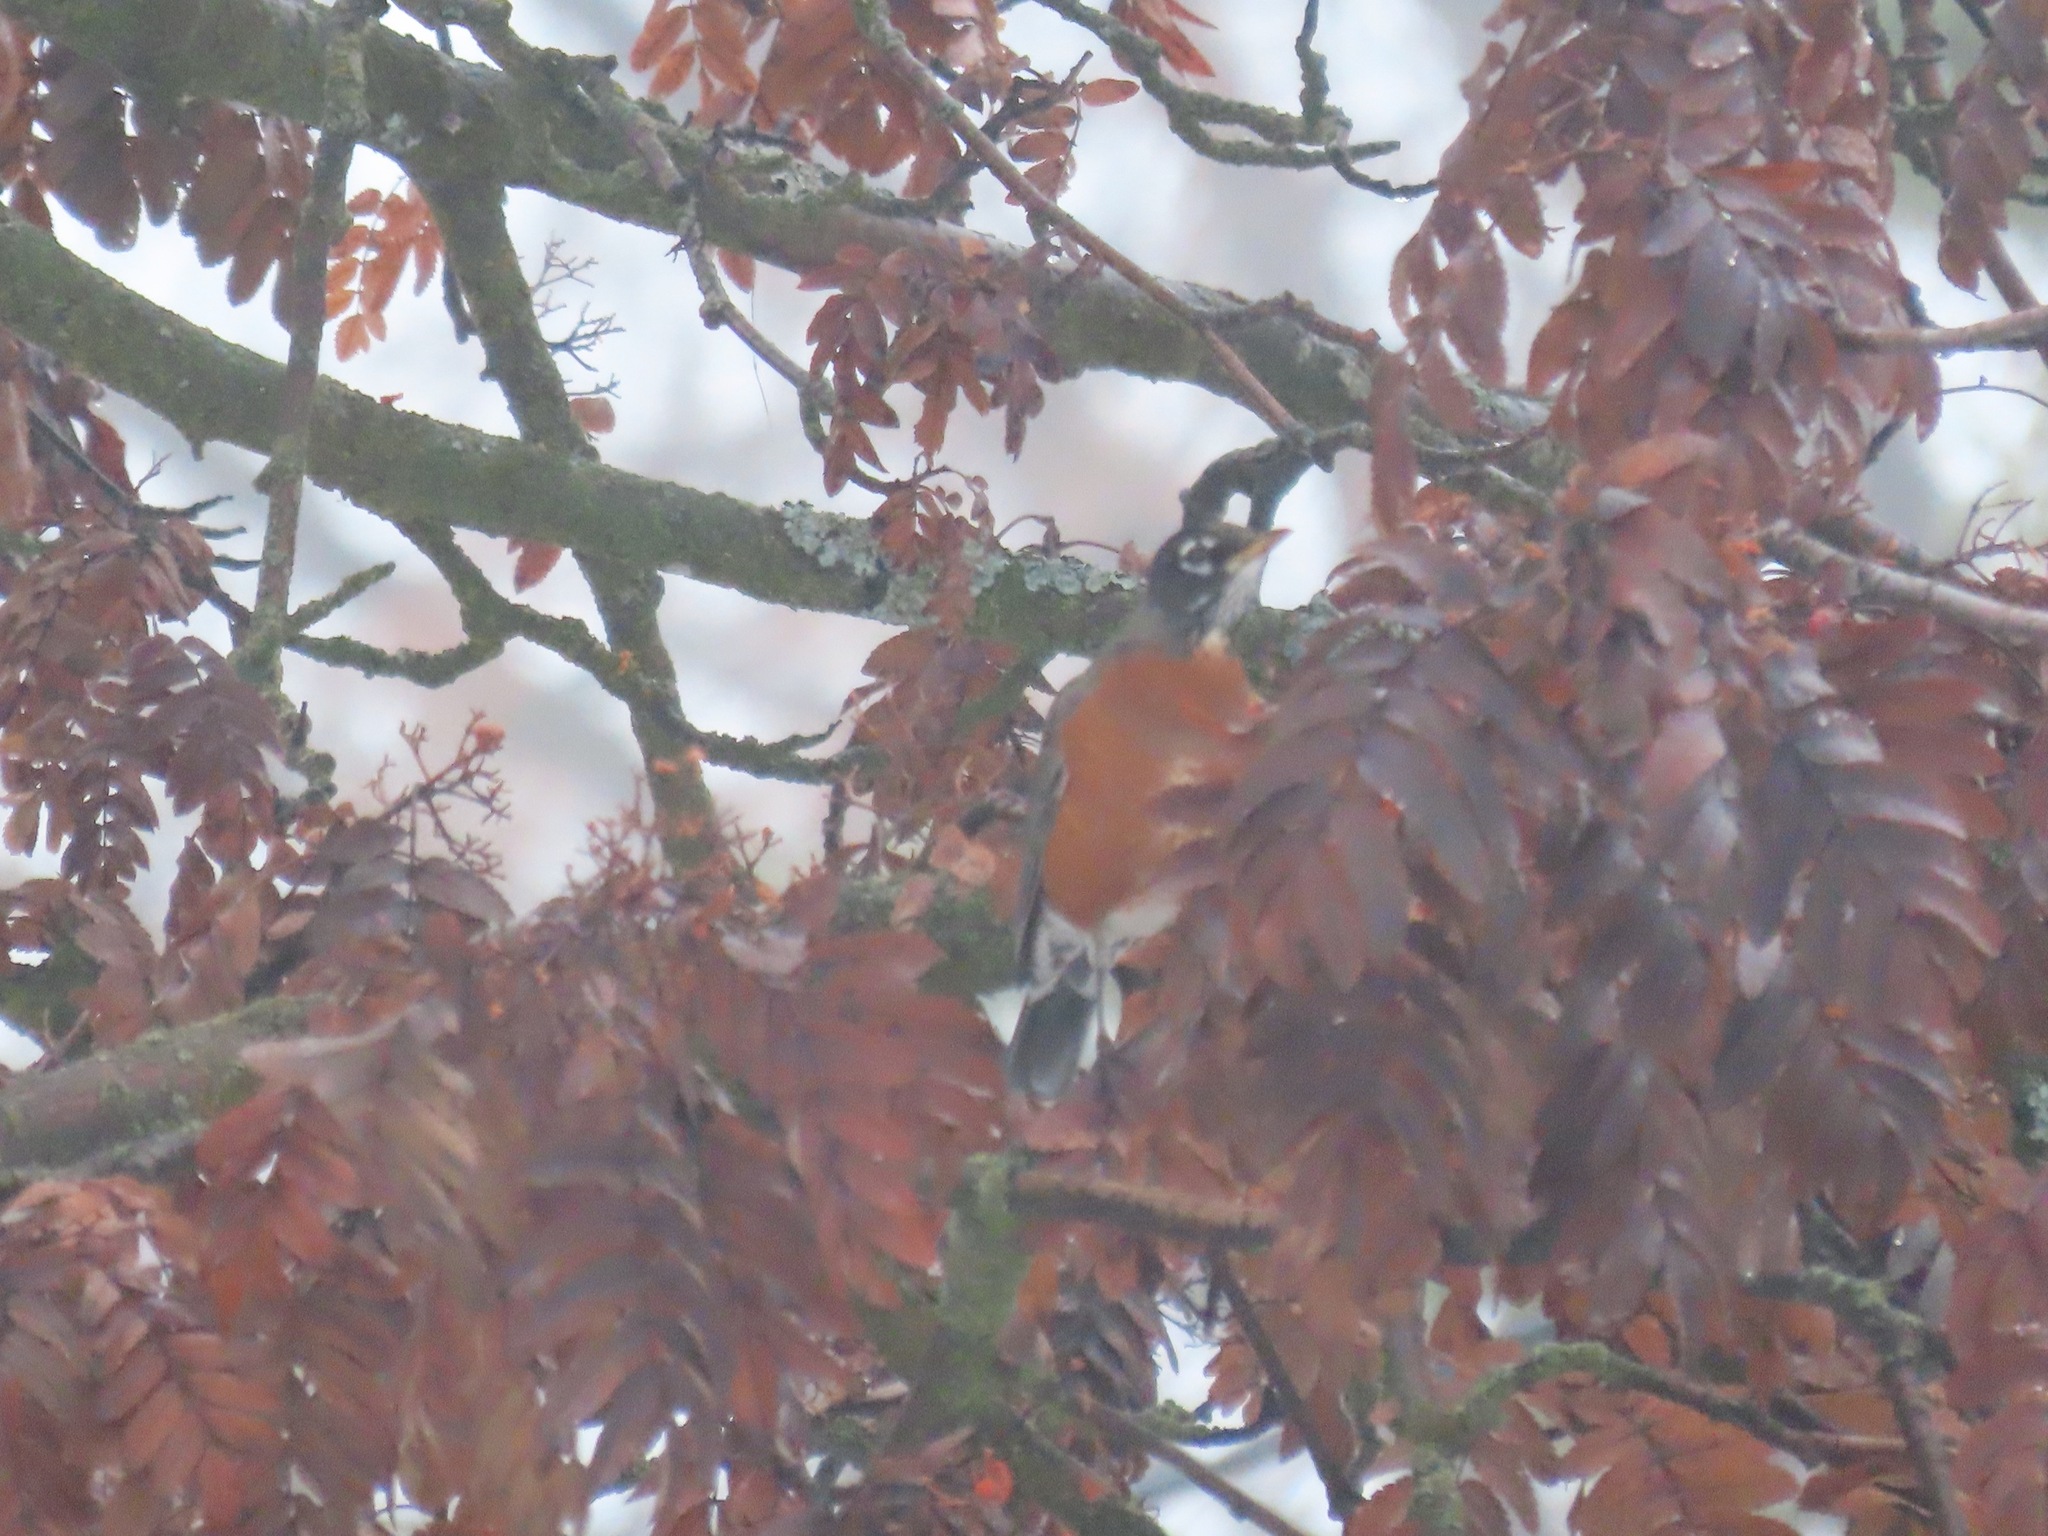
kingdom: Animalia
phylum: Chordata
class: Aves
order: Passeriformes
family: Turdidae
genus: Turdus
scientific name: Turdus migratorius
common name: American robin
